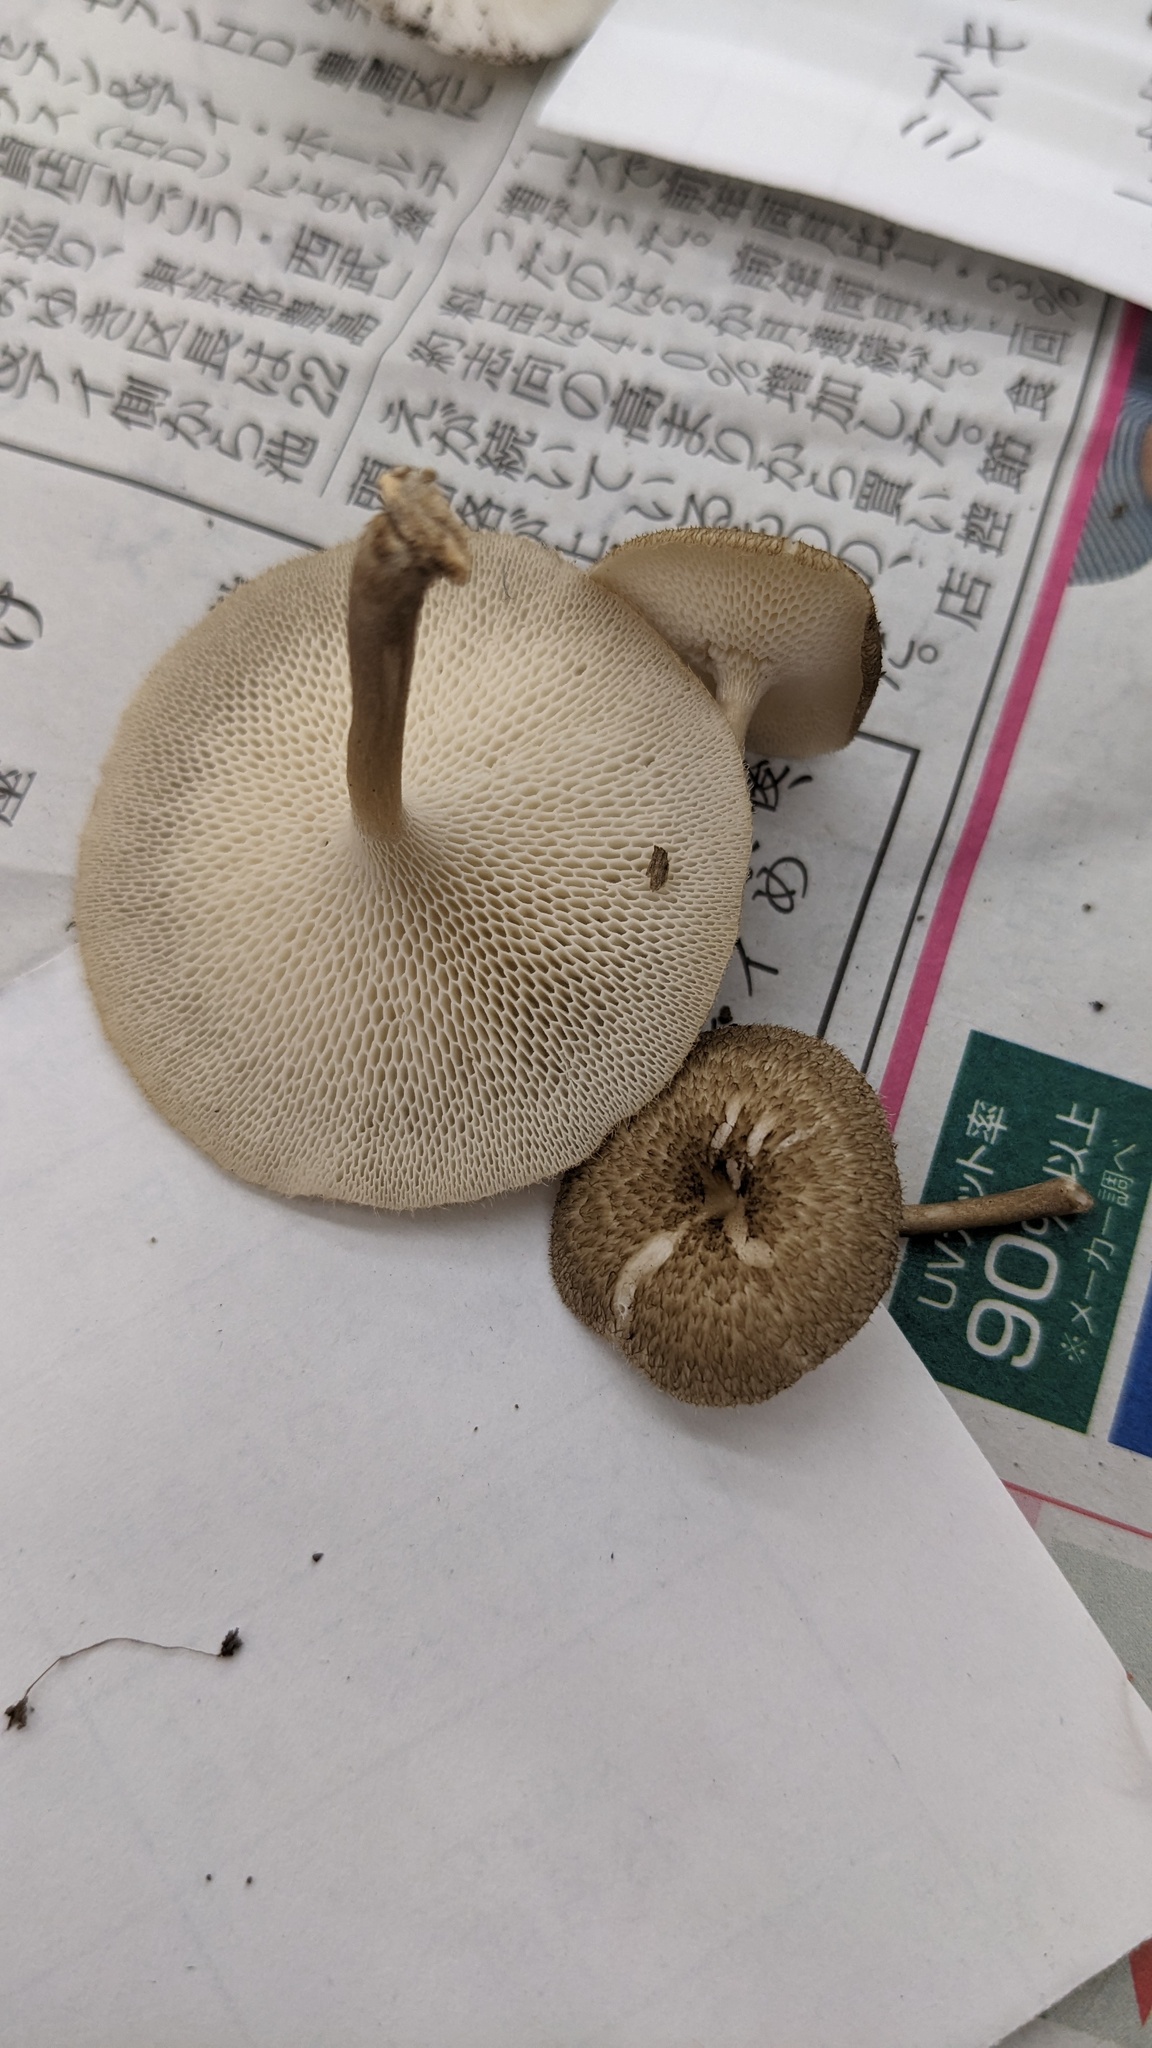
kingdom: Fungi
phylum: Basidiomycota
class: Agaricomycetes
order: Polyporales
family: Polyporaceae
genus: Lentinus
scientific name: Lentinus arcularius
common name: Spring polypore
